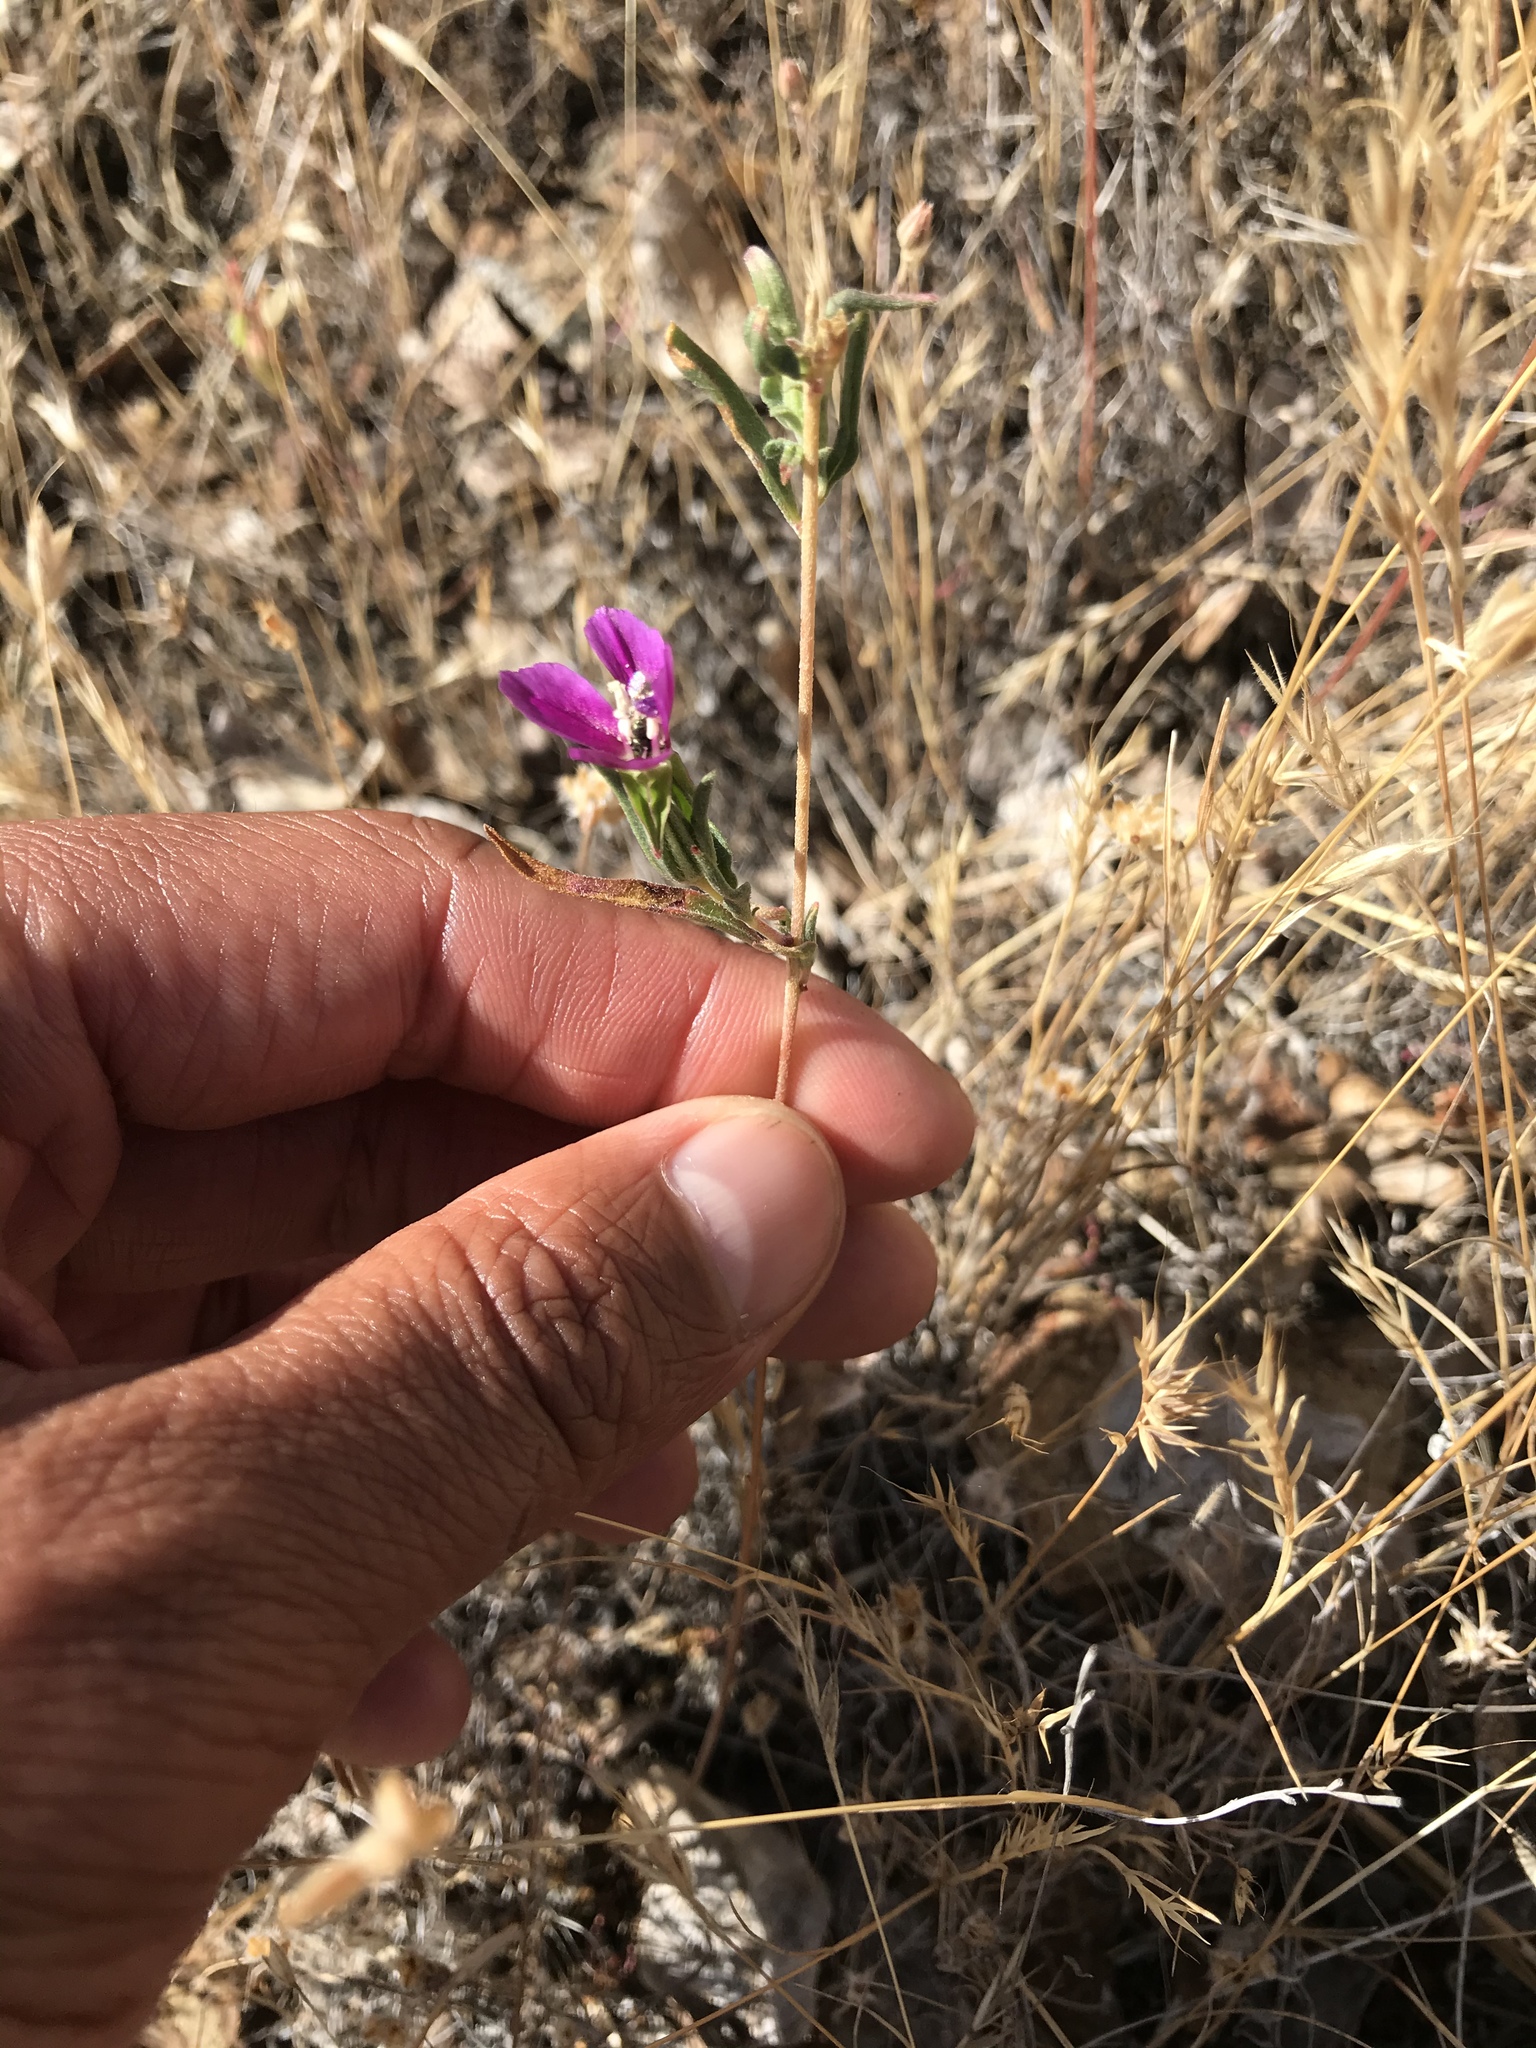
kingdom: Plantae
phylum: Tracheophyta
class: Magnoliopsida
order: Myrtales
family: Onagraceae
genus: Clarkia
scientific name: Clarkia purpurea
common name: Purple clarkia
